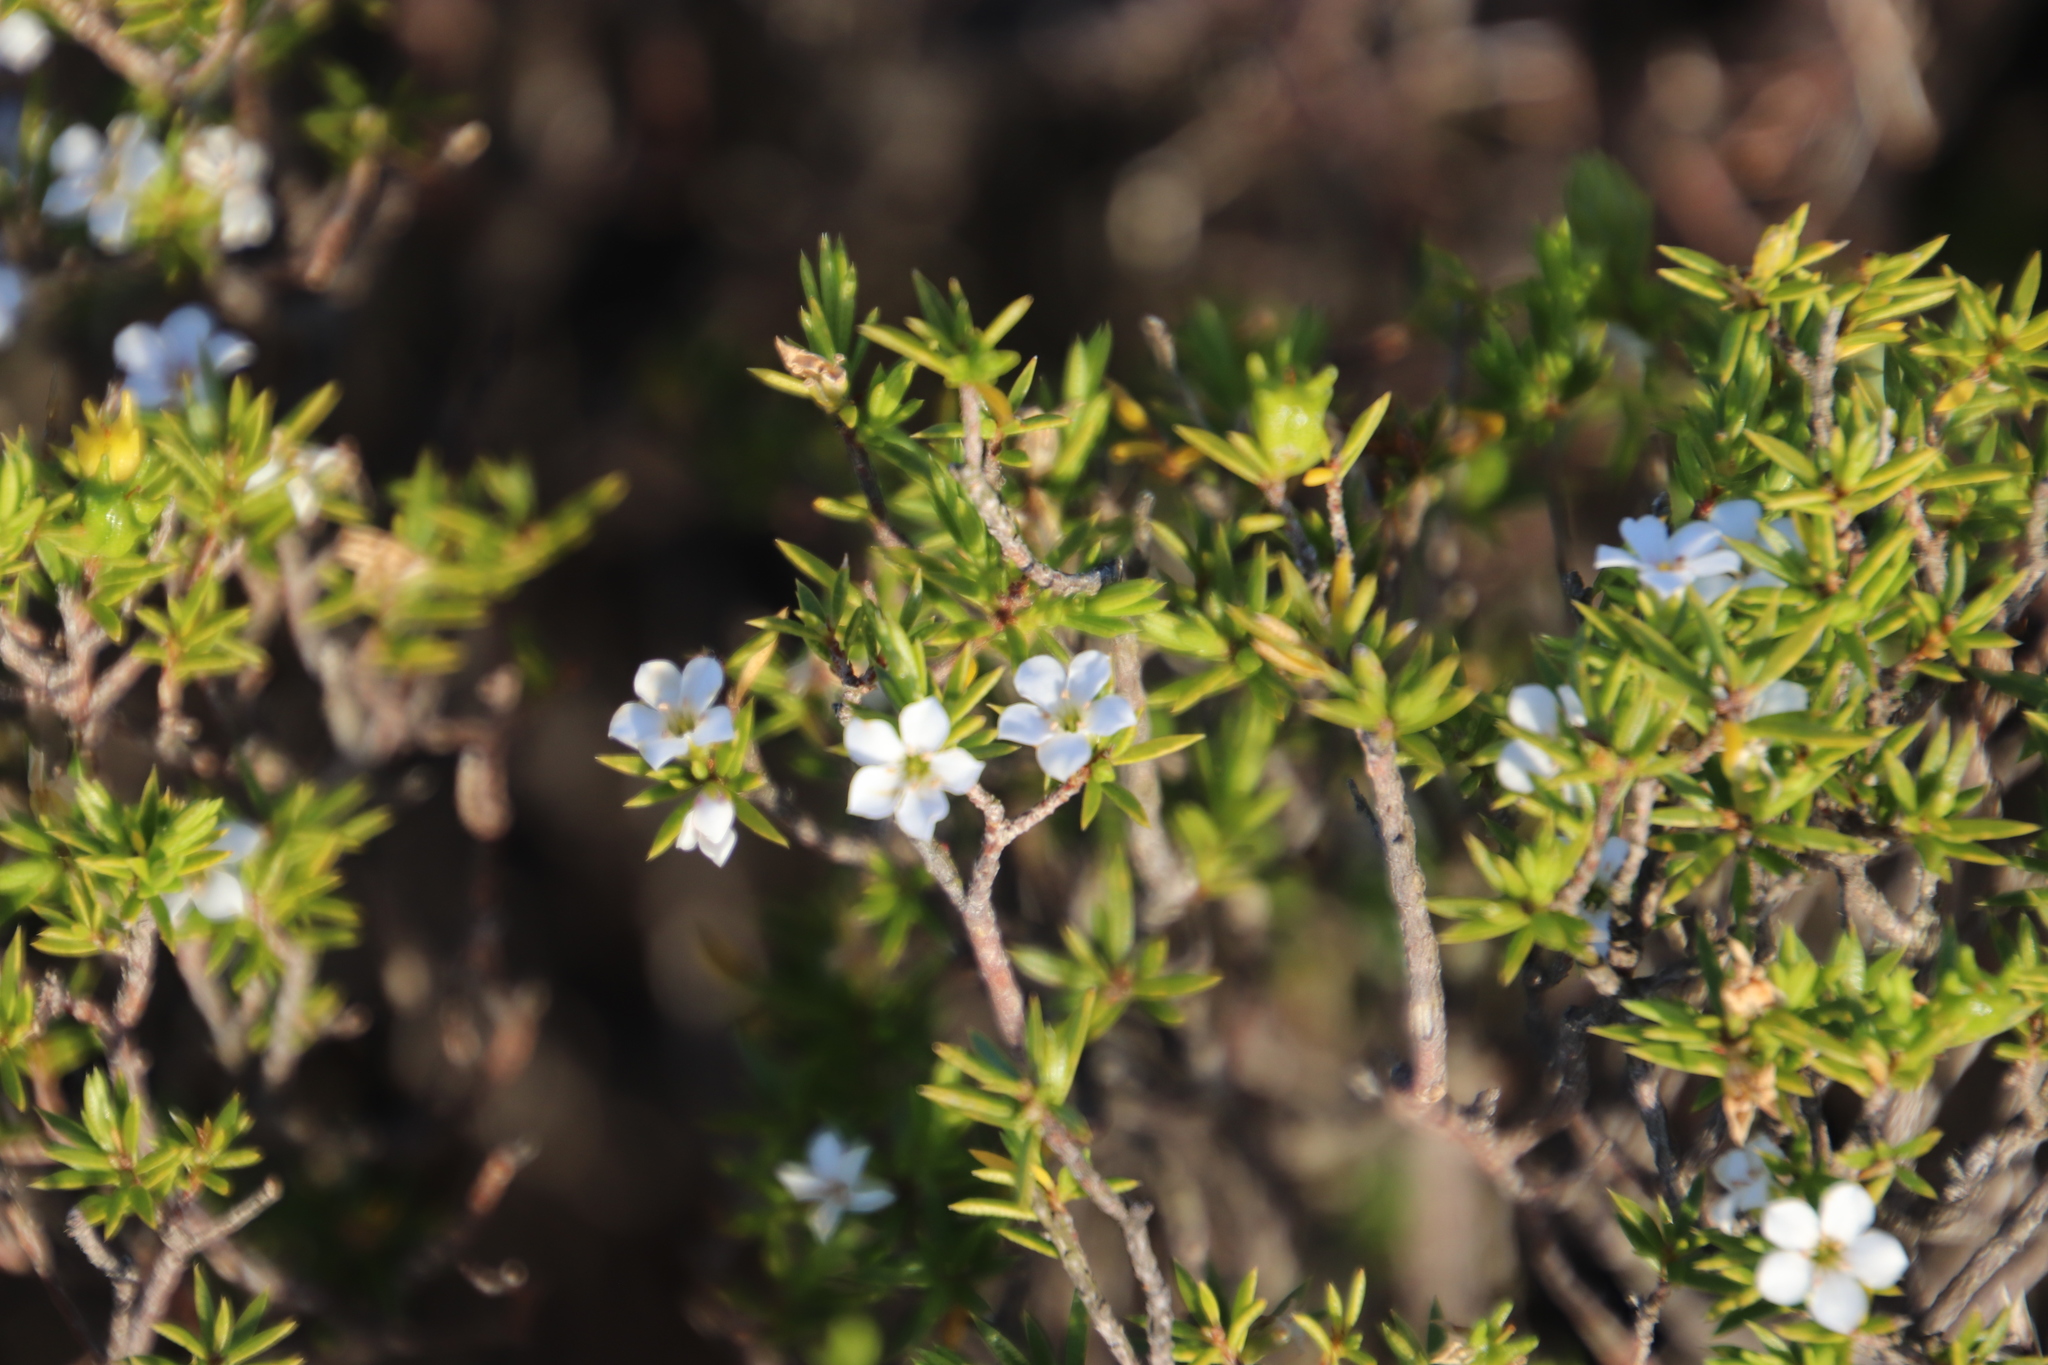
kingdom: Plantae
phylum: Tracheophyta
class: Magnoliopsida
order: Sapindales
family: Rutaceae
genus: Coleonema
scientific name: Coleonema album
